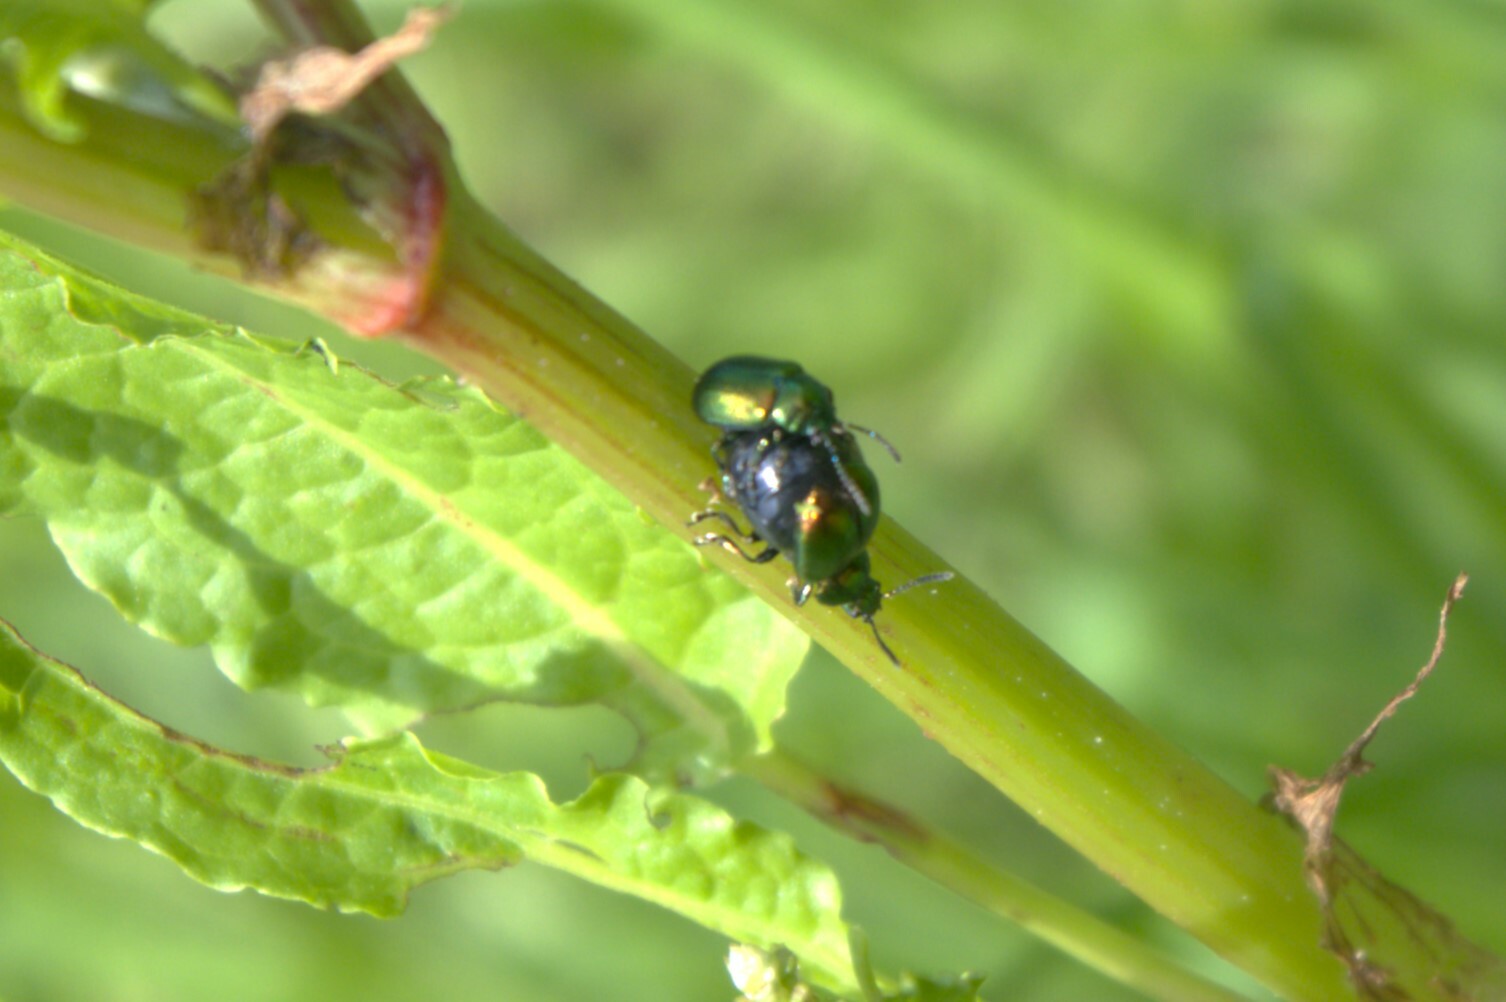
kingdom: Animalia
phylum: Arthropoda
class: Insecta
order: Coleoptera
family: Chrysomelidae
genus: Gastrophysa
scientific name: Gastrophysa viridula
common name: Green dock beetle
